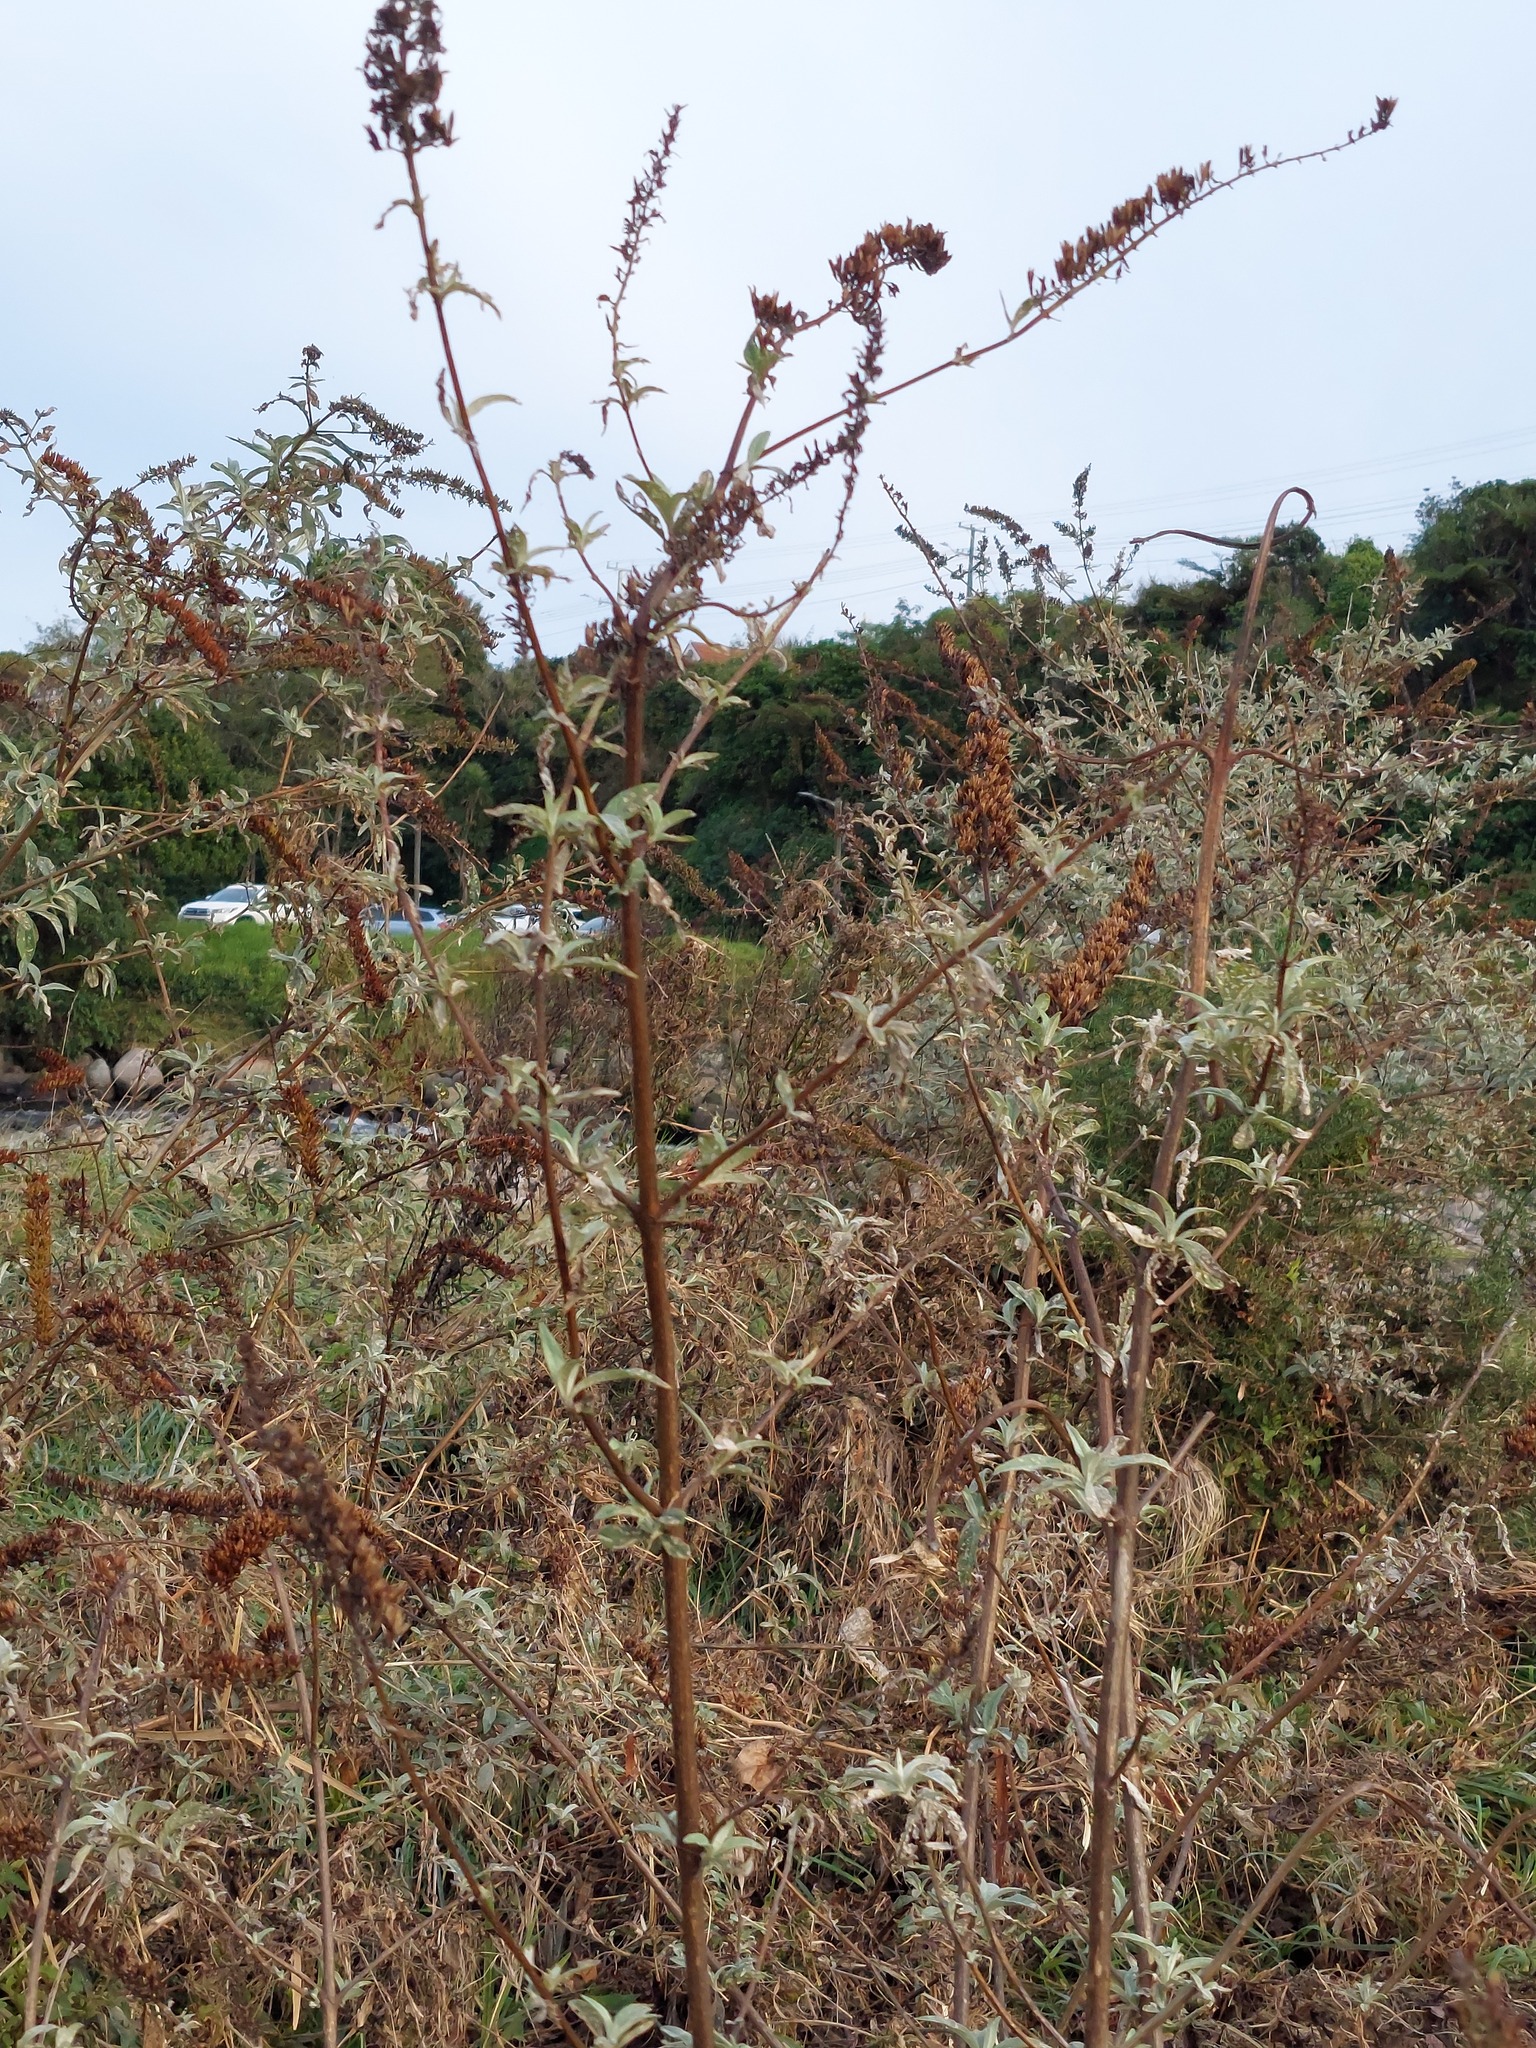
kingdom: Plantae
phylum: Tracheophyta
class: Magnoliopsida
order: Lamiales
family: Scrophulariaceae
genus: Buddleja
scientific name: Buddleja davidii
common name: Butterfly-bush
